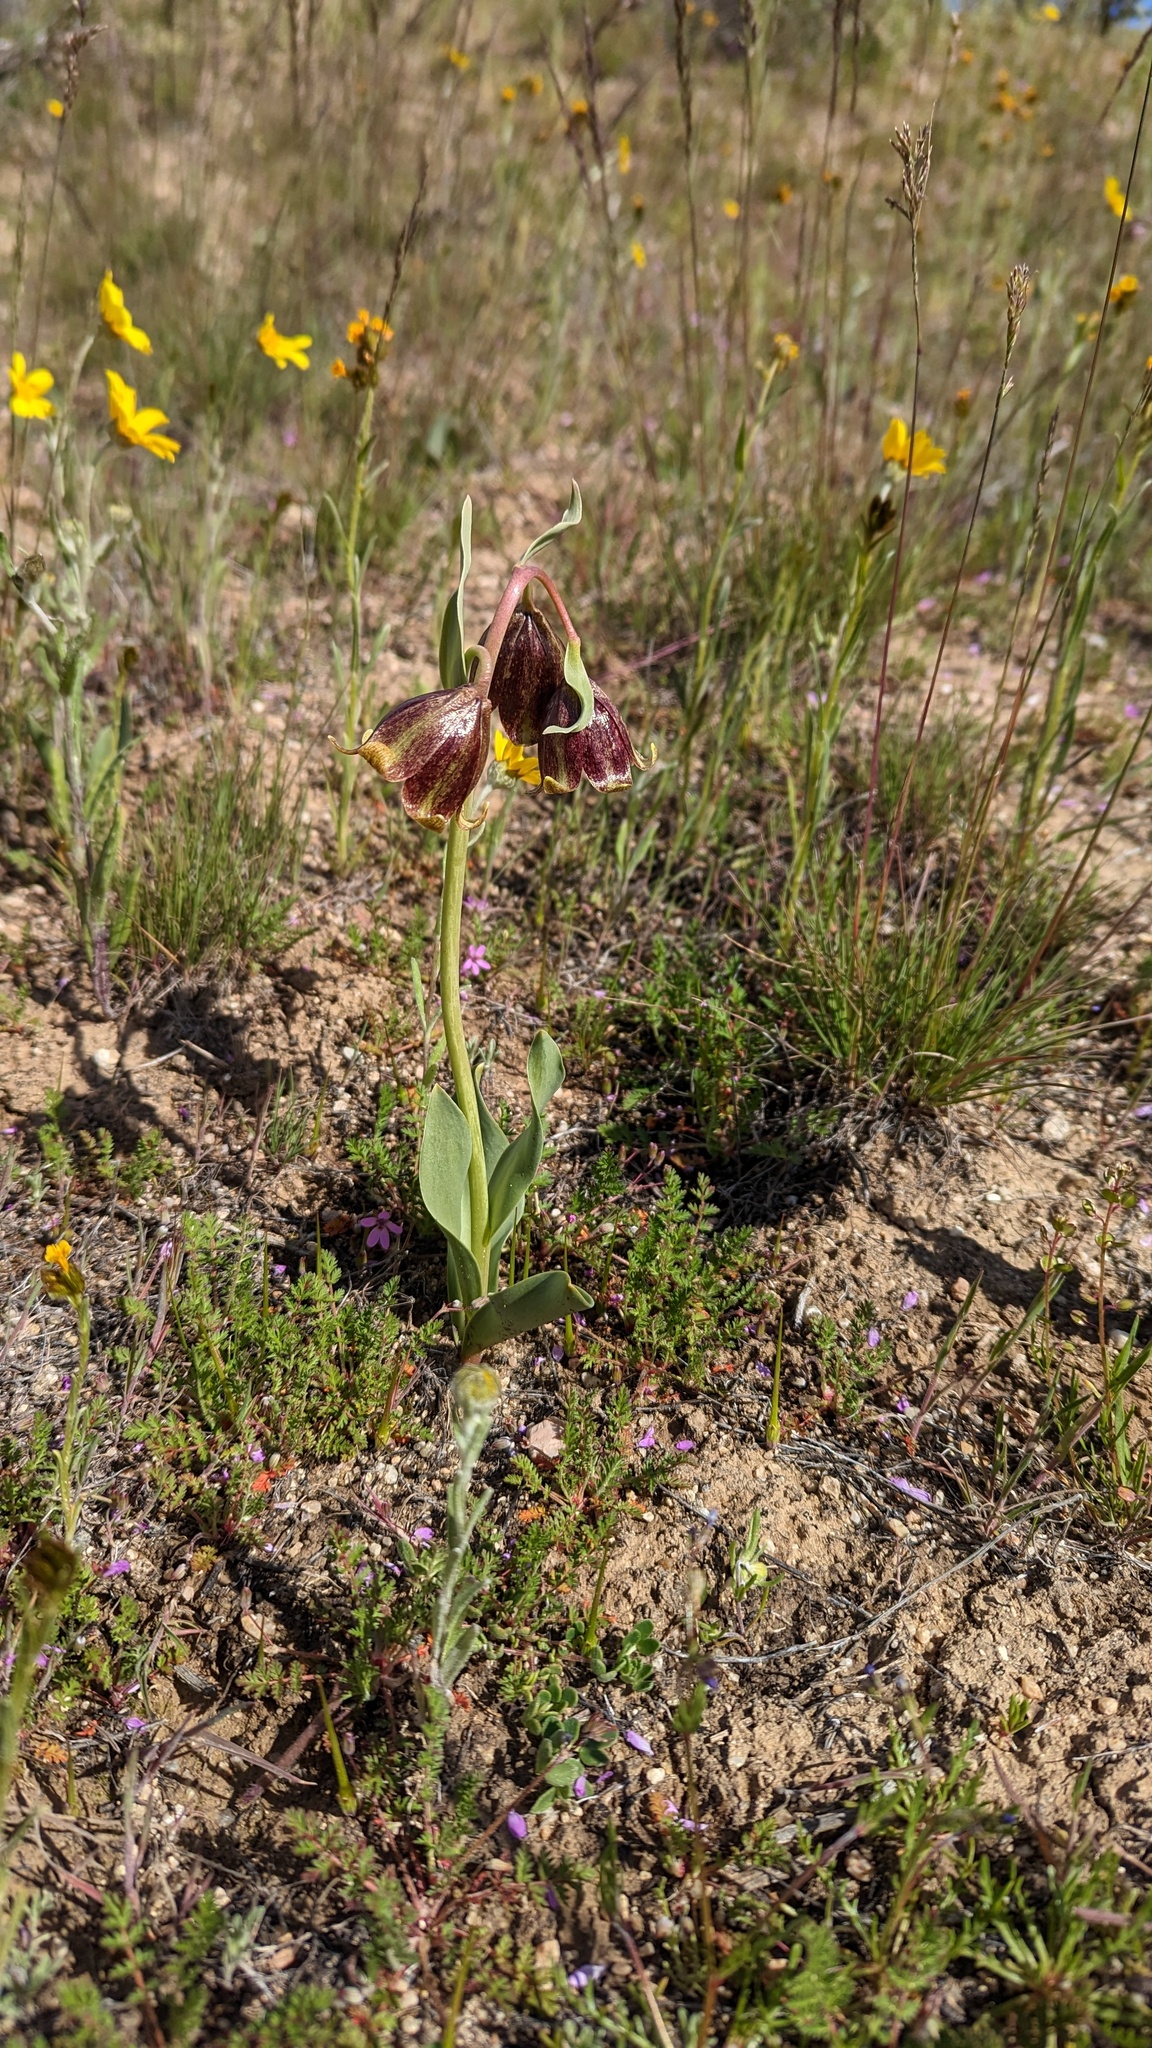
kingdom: Plantae
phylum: Tracheophyta
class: Liliopsida
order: Liliales
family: Liliaceae
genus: Fritillaria
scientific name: Fritillaria agrestis
